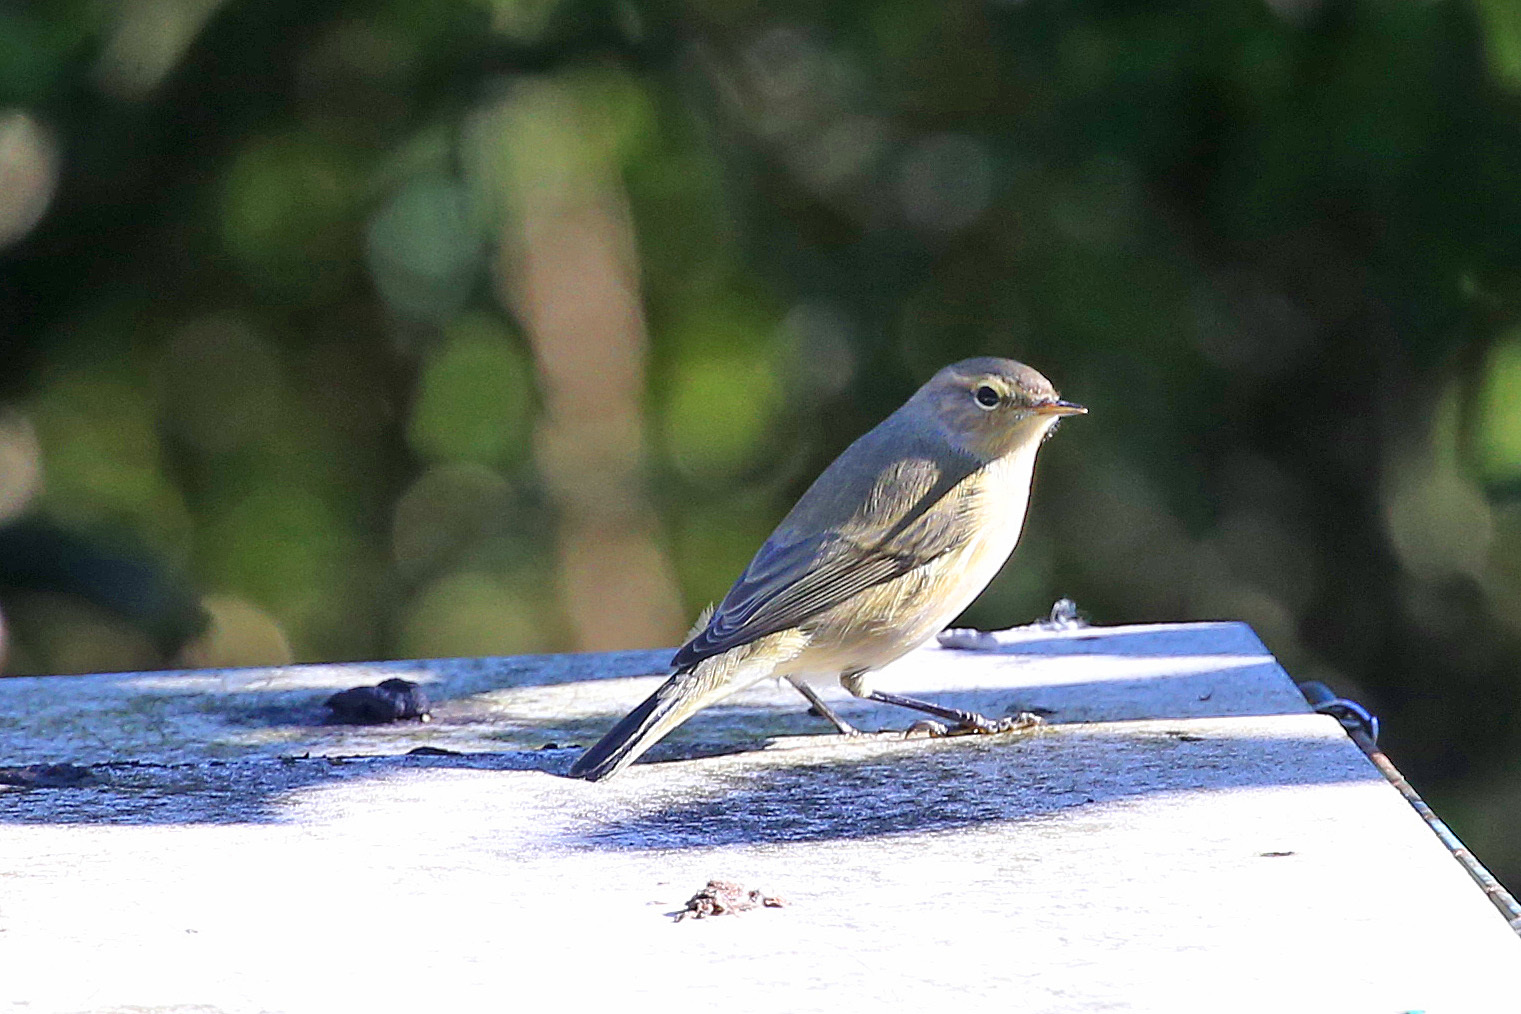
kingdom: Animalia
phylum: Chordata
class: Aves
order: Passeriformes
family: Phylloscopidae
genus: Phylloscopus
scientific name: Phylloscopus collybita
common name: Common chiffchaff
